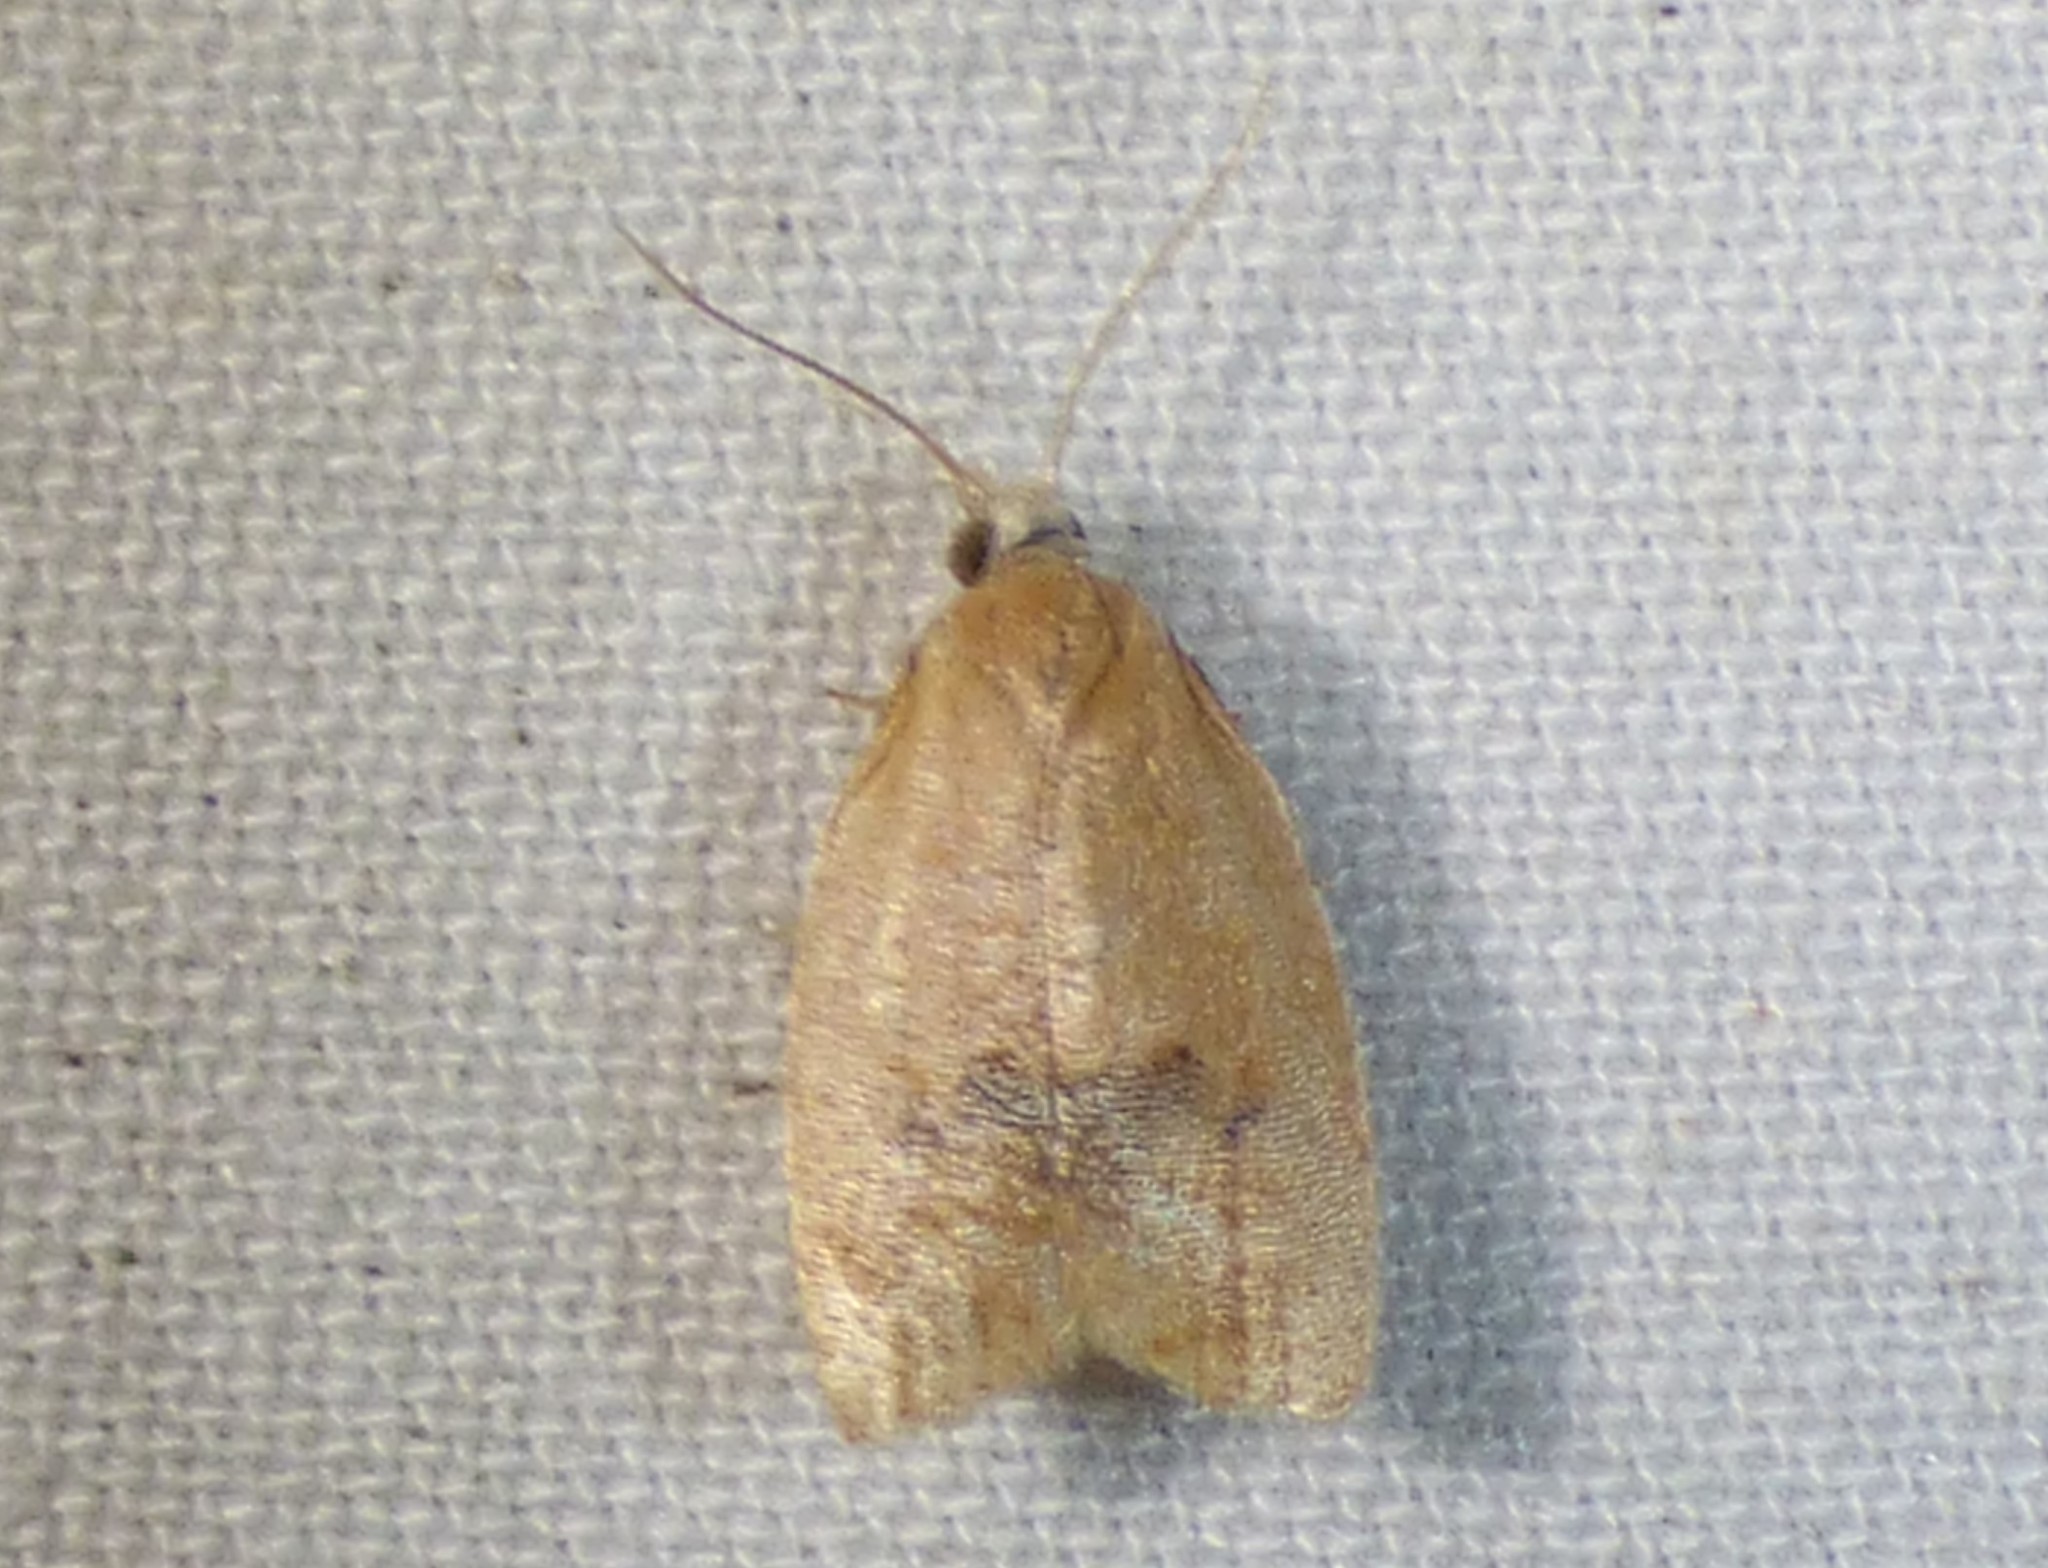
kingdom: Animalia
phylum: Arthropoda
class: Insecta
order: Lepidoptera
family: Tortricidae
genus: Sparganothoides
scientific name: Sparganothoides lentiginosana
